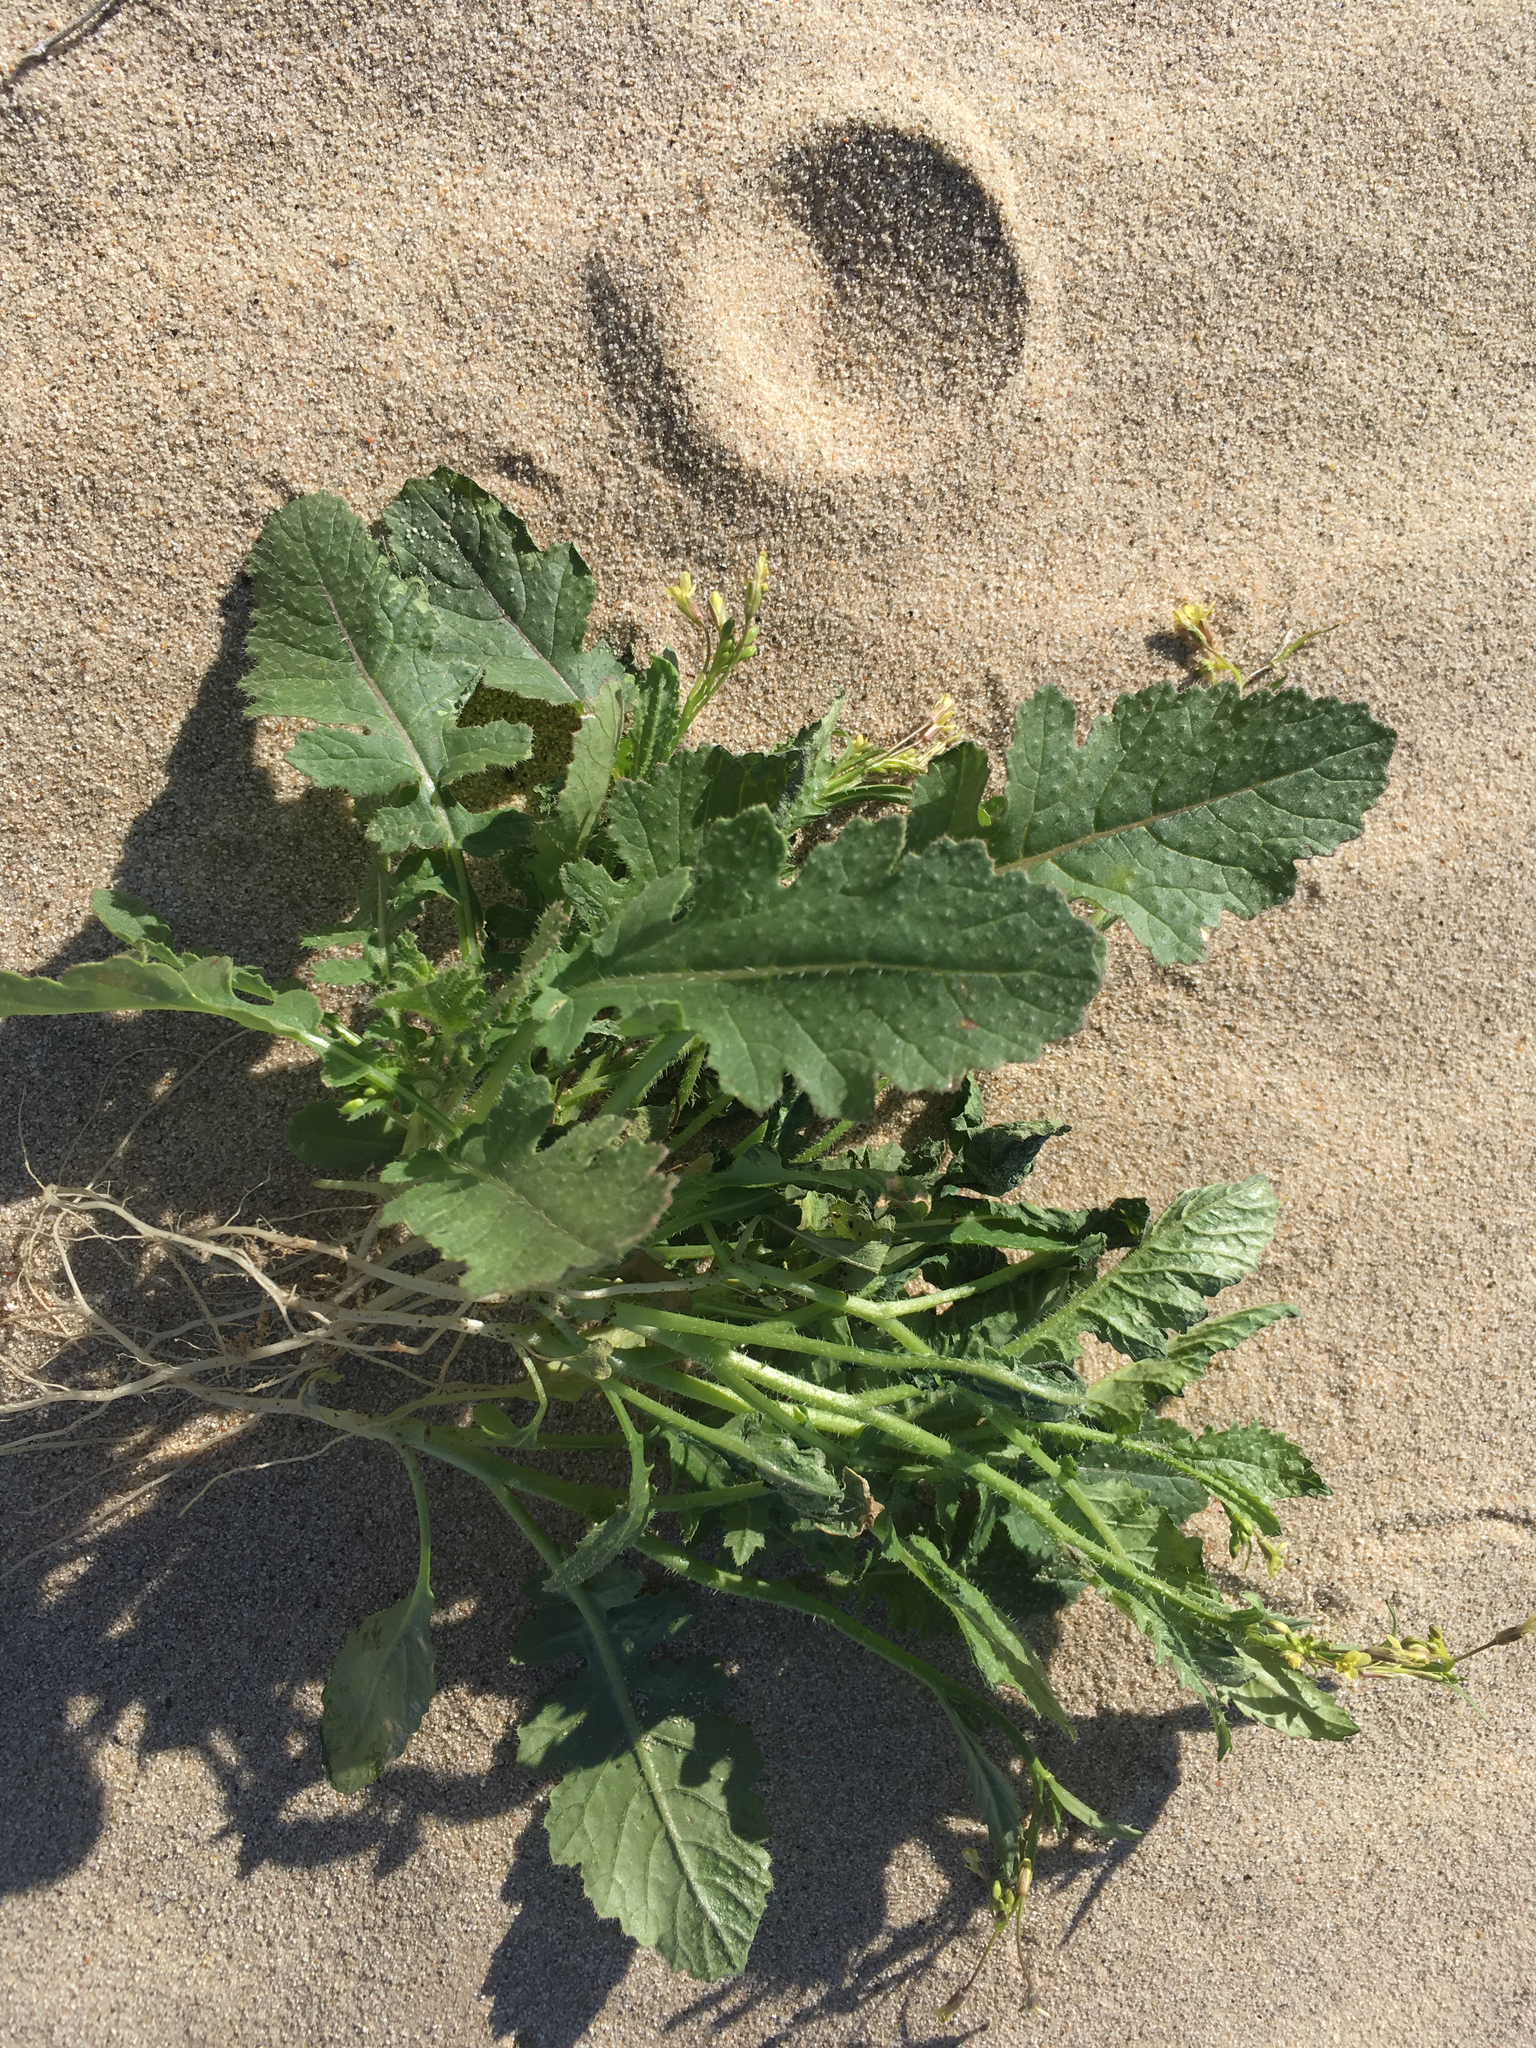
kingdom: Plantae
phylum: Tracheophyta
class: Magnoliopsida
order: Brassicales
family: Brassicaceae
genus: Brassica
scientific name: Brassica tournefortii
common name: Pale cabbage
